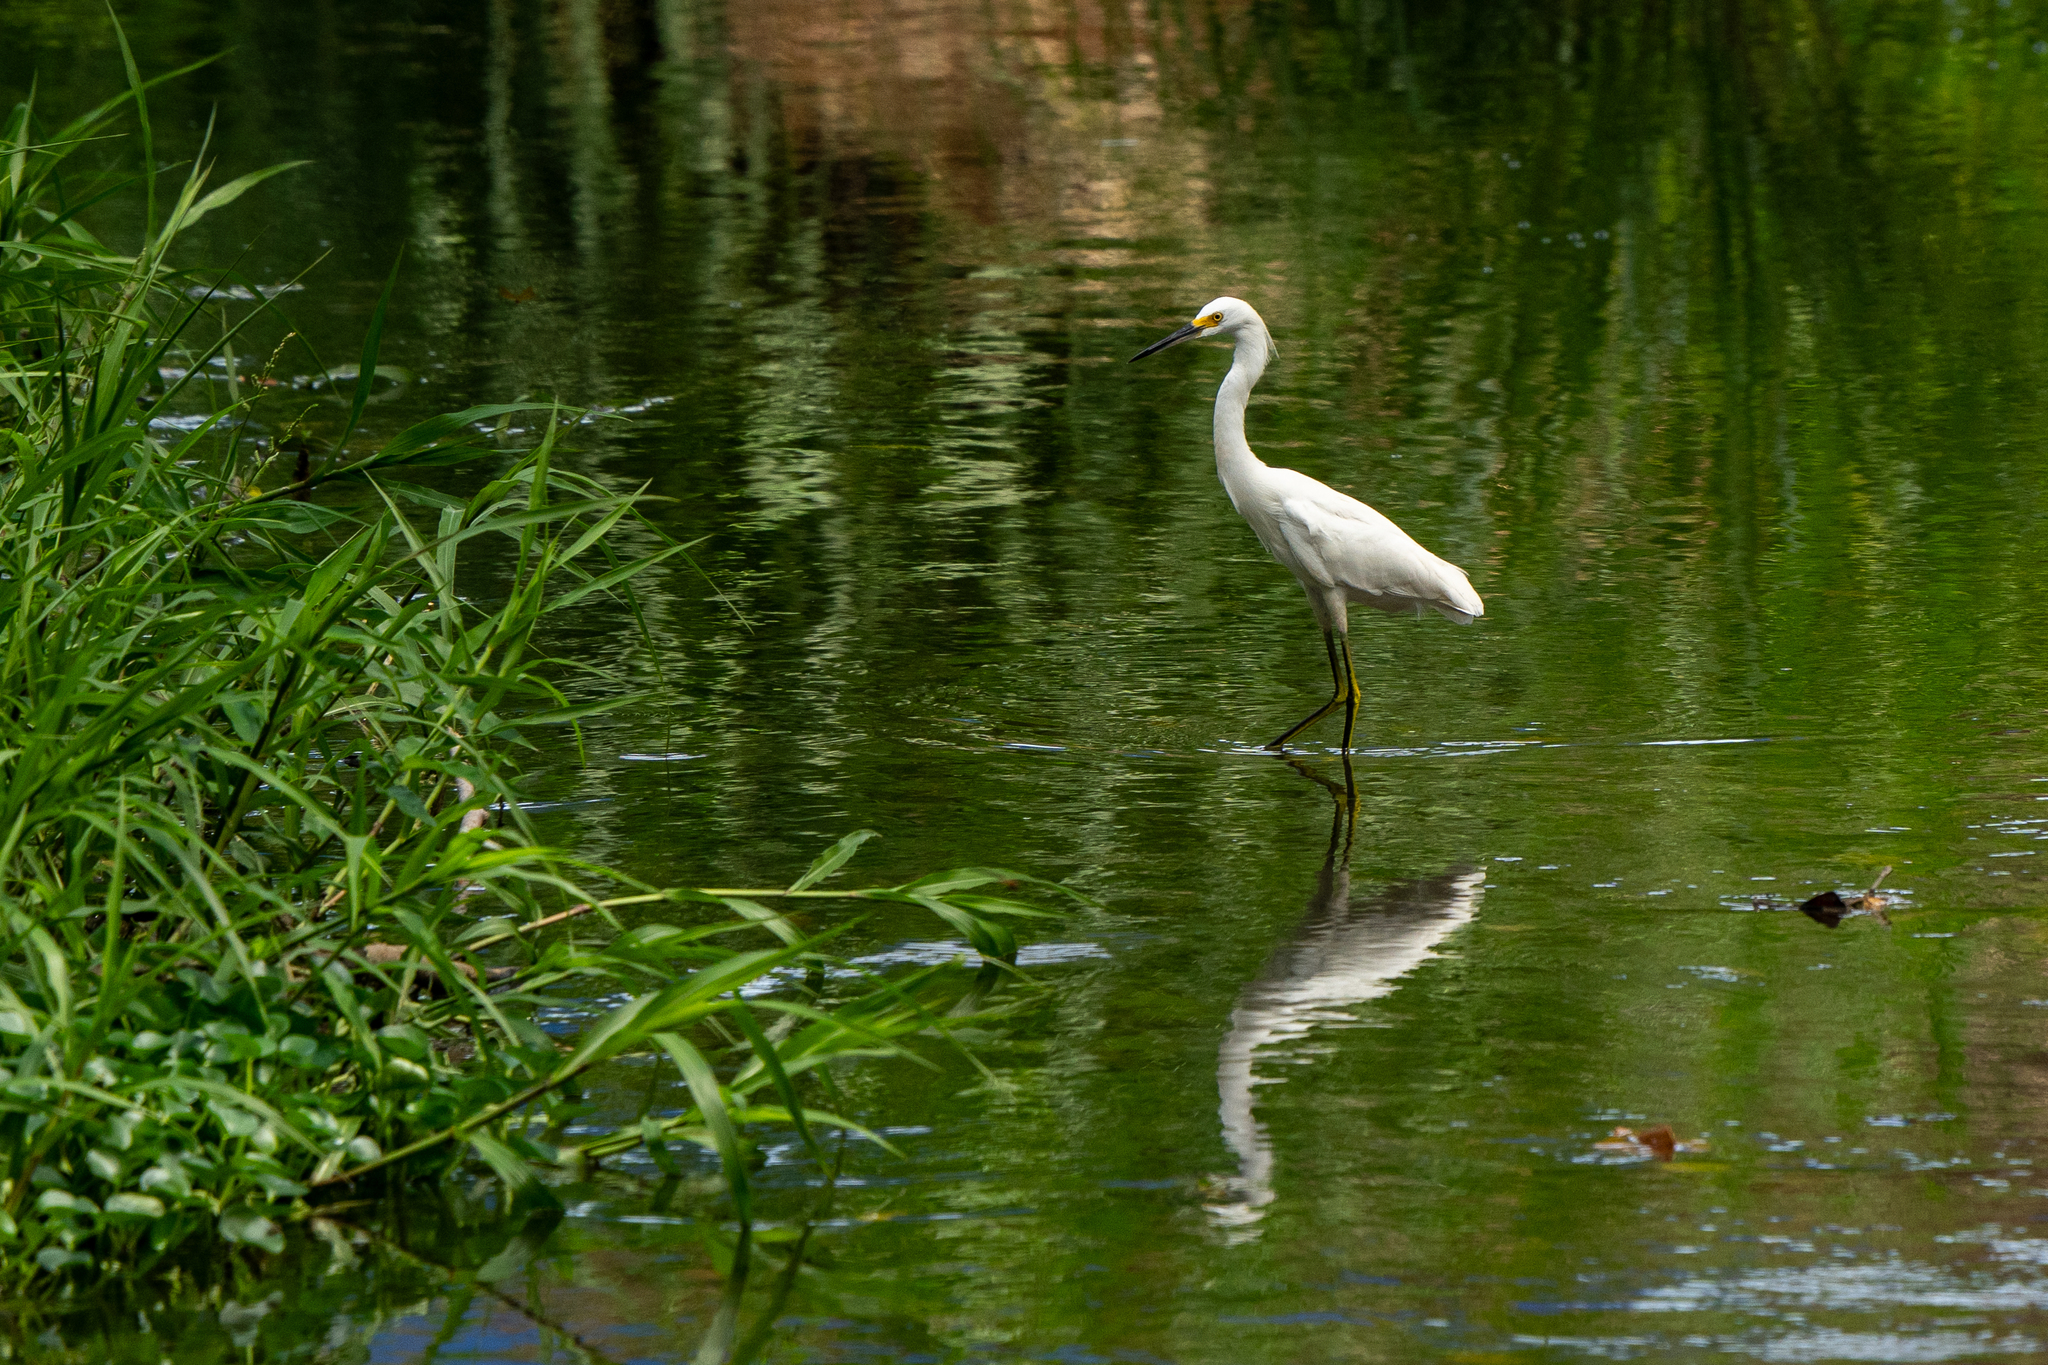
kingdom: Animalia
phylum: Chordata
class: Aves
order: Pelecaniformes
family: Ardeidae
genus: Egretta
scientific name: Egretta thula
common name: Snowy egret
